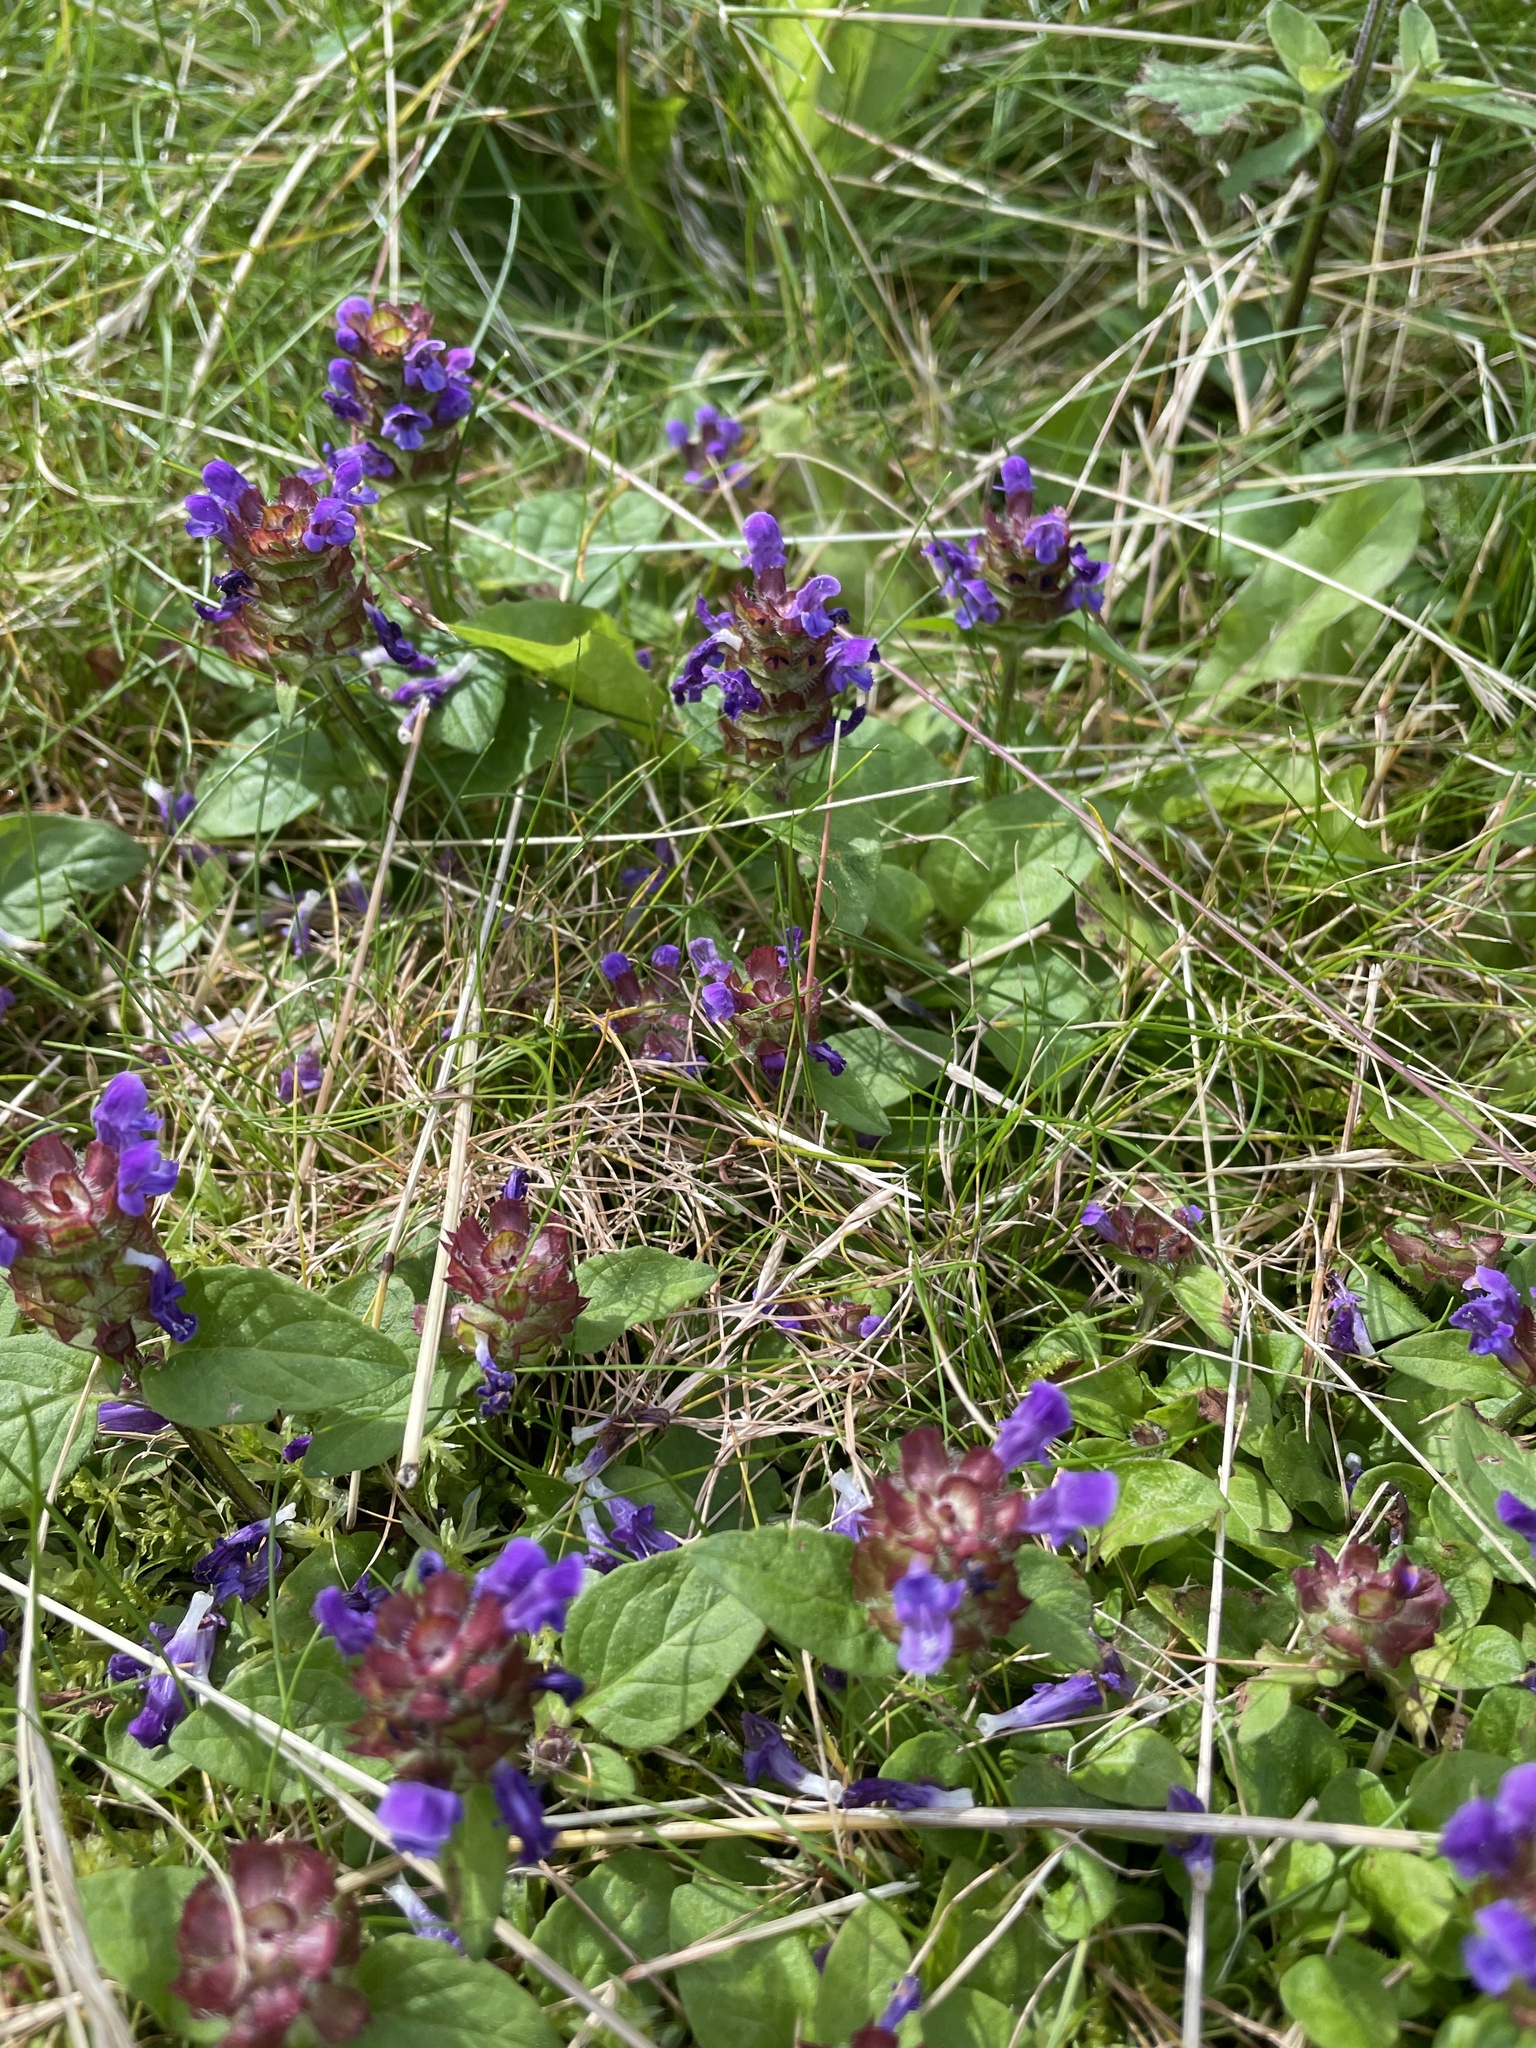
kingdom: Plantae
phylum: Tracheophyta
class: Magnoliopsida
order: Lamiales
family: Lamiaceae
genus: Prunella
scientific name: Prunella vulgaris
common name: Heal-all
